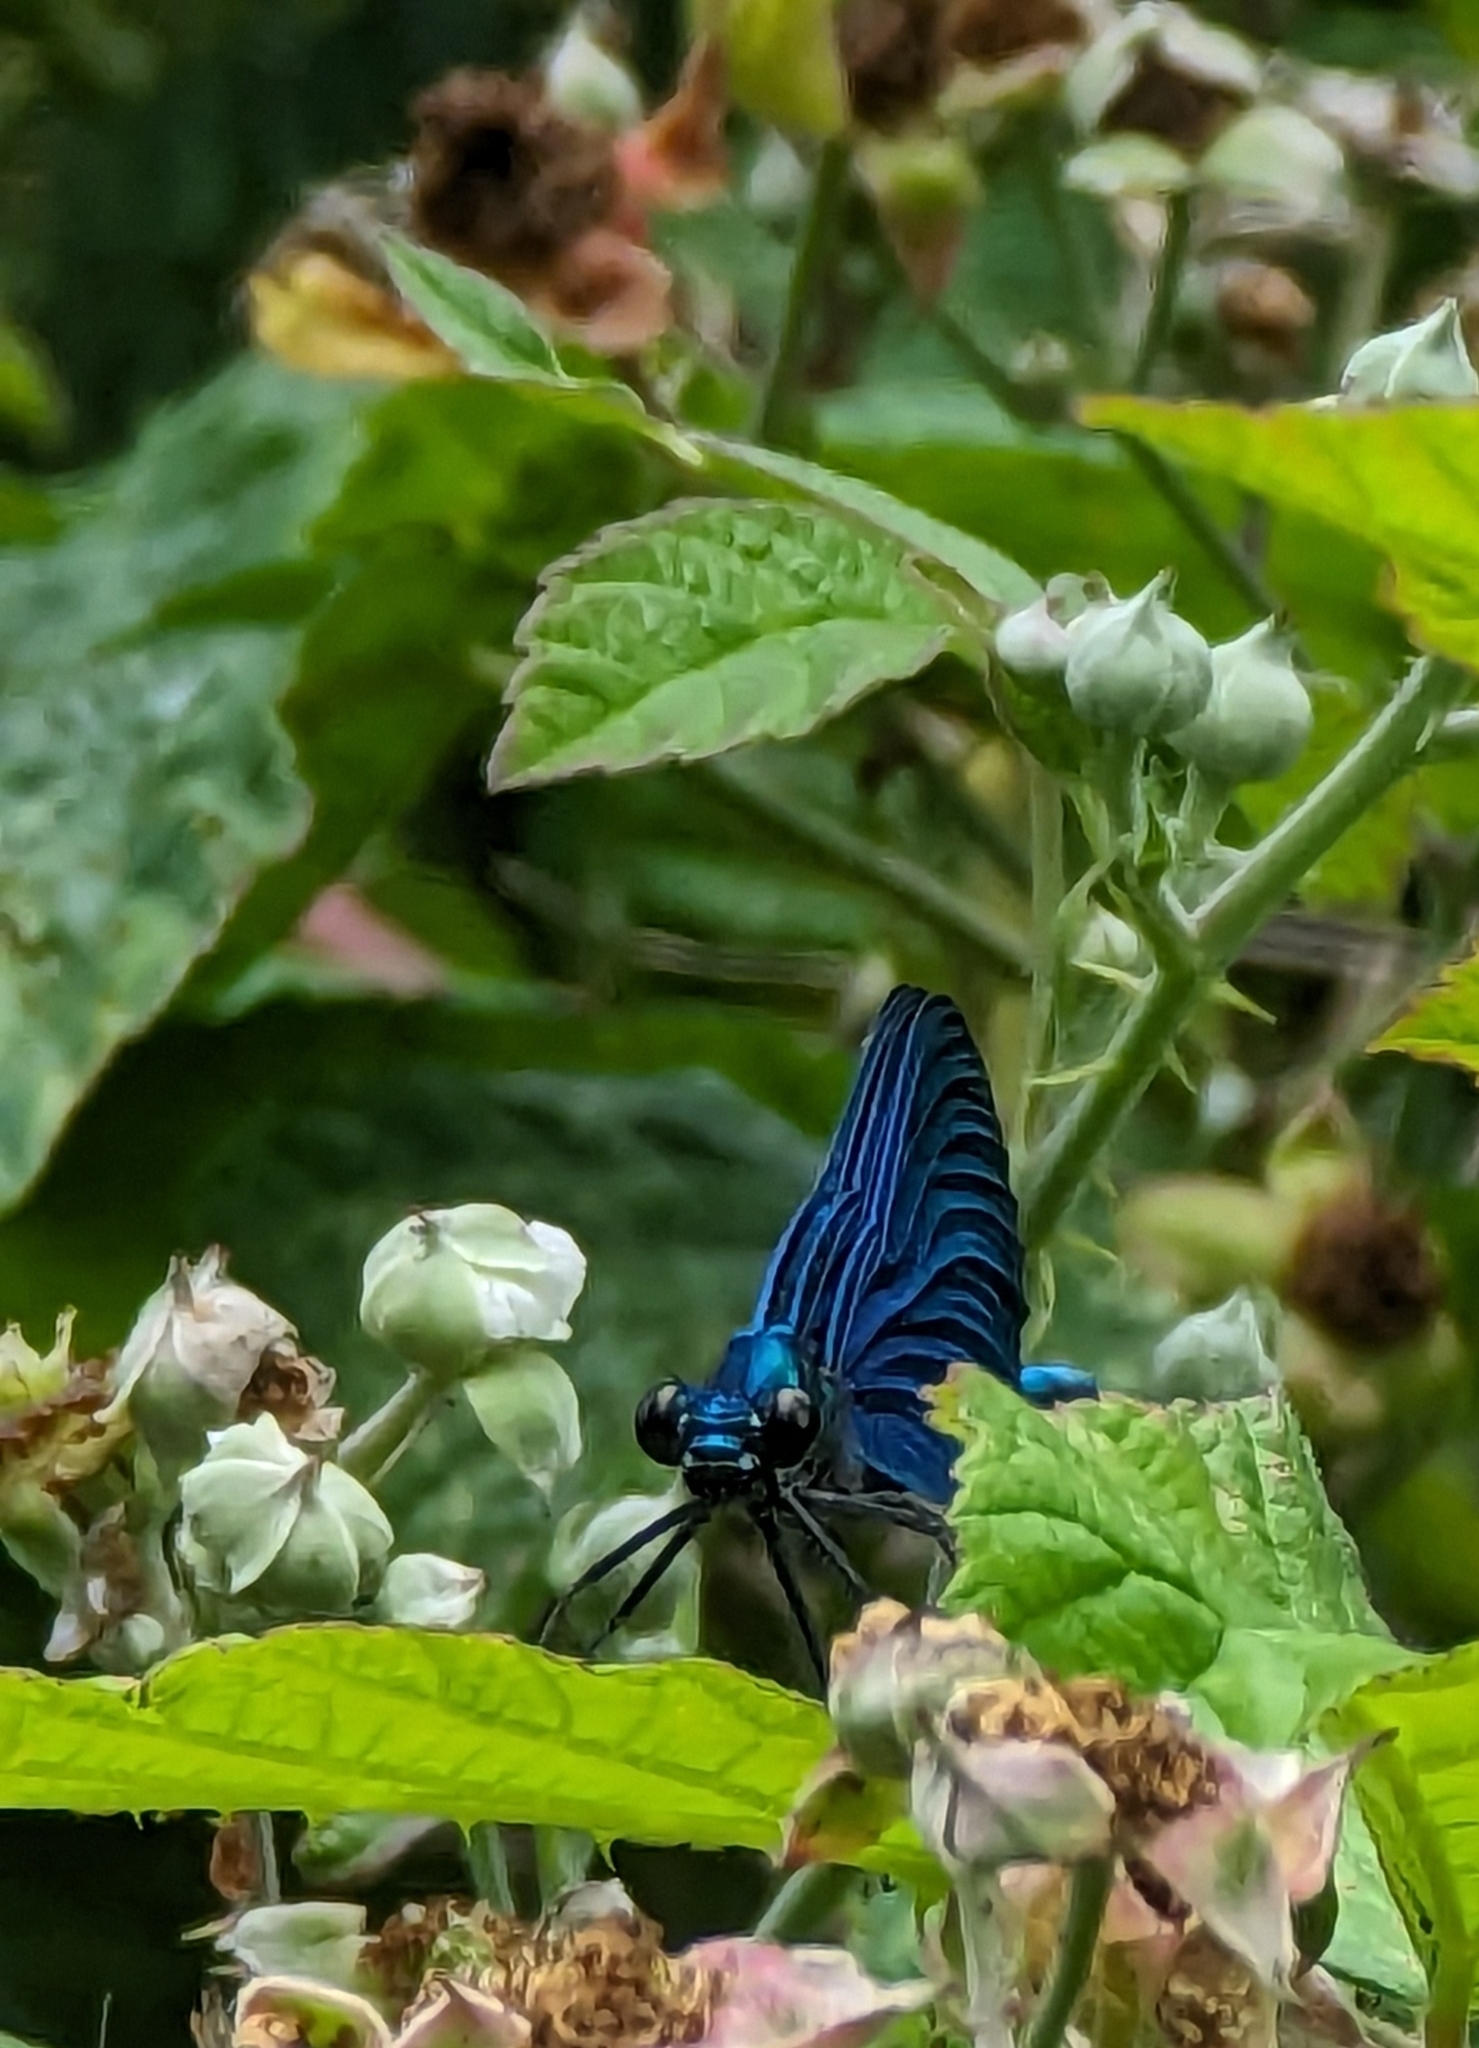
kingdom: Animalia
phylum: Arthropoda
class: Insecta
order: Odonata
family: Calopterygidae
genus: Calopteryx
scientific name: Calopteryx virgo
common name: Beautiful demoiselle
